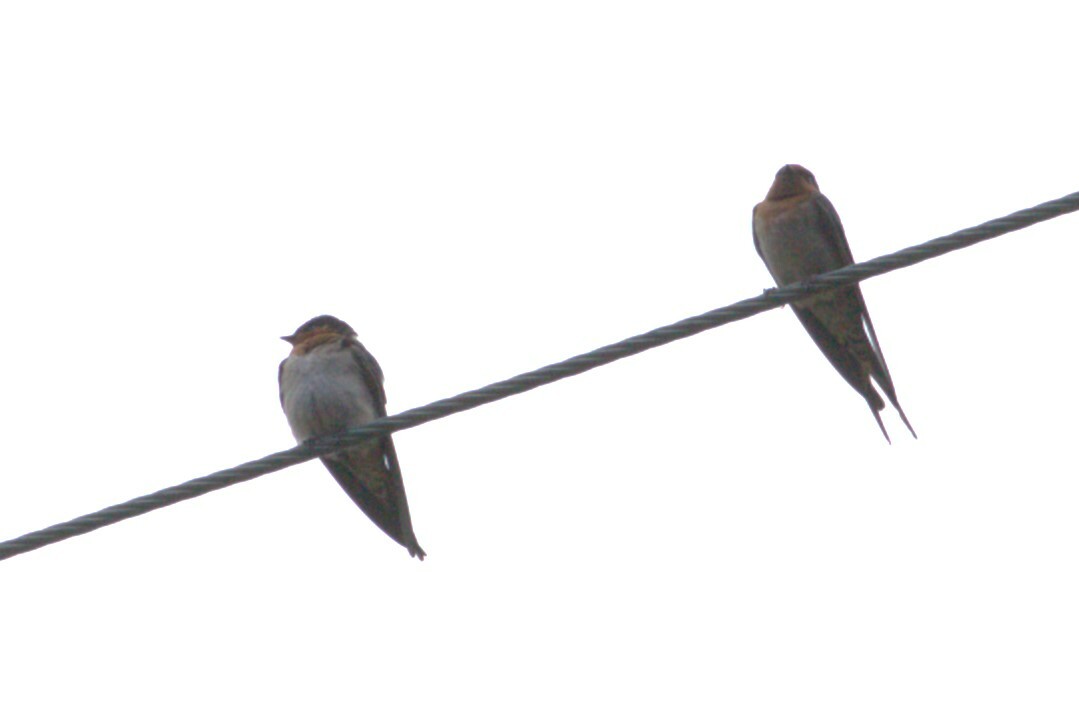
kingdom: Animalia
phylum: Chordata
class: Aves
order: Passeriformes
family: Hirundinidae
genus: Hirundo
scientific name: Hirundo neoxena
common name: Welcome swallow
